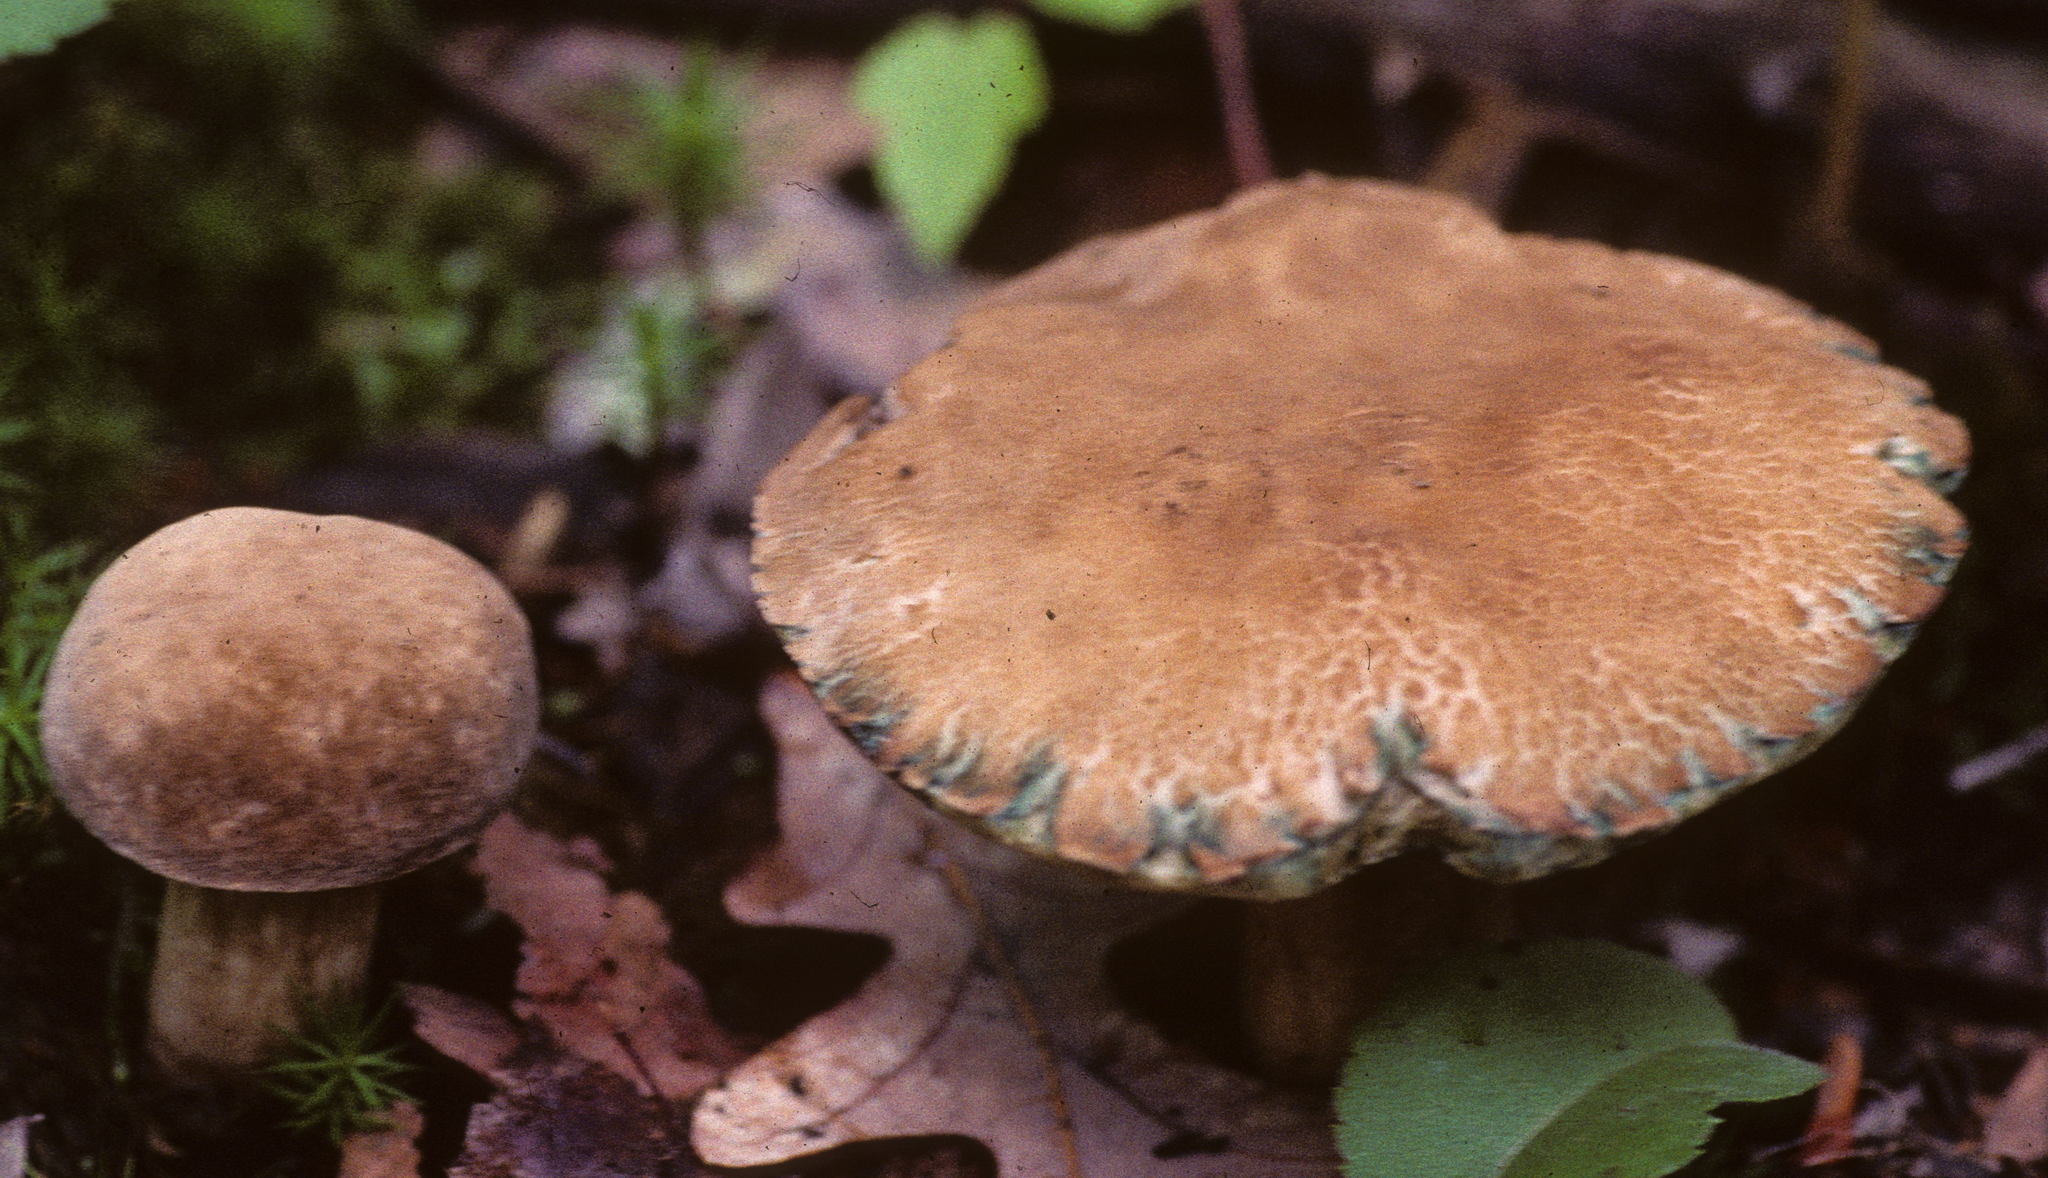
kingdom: Fungi
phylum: Basidiomycota
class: Agaricomycetes
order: Boletales
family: Boletaceae
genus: Porphyrellus
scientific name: Porphyrellus sordidus
